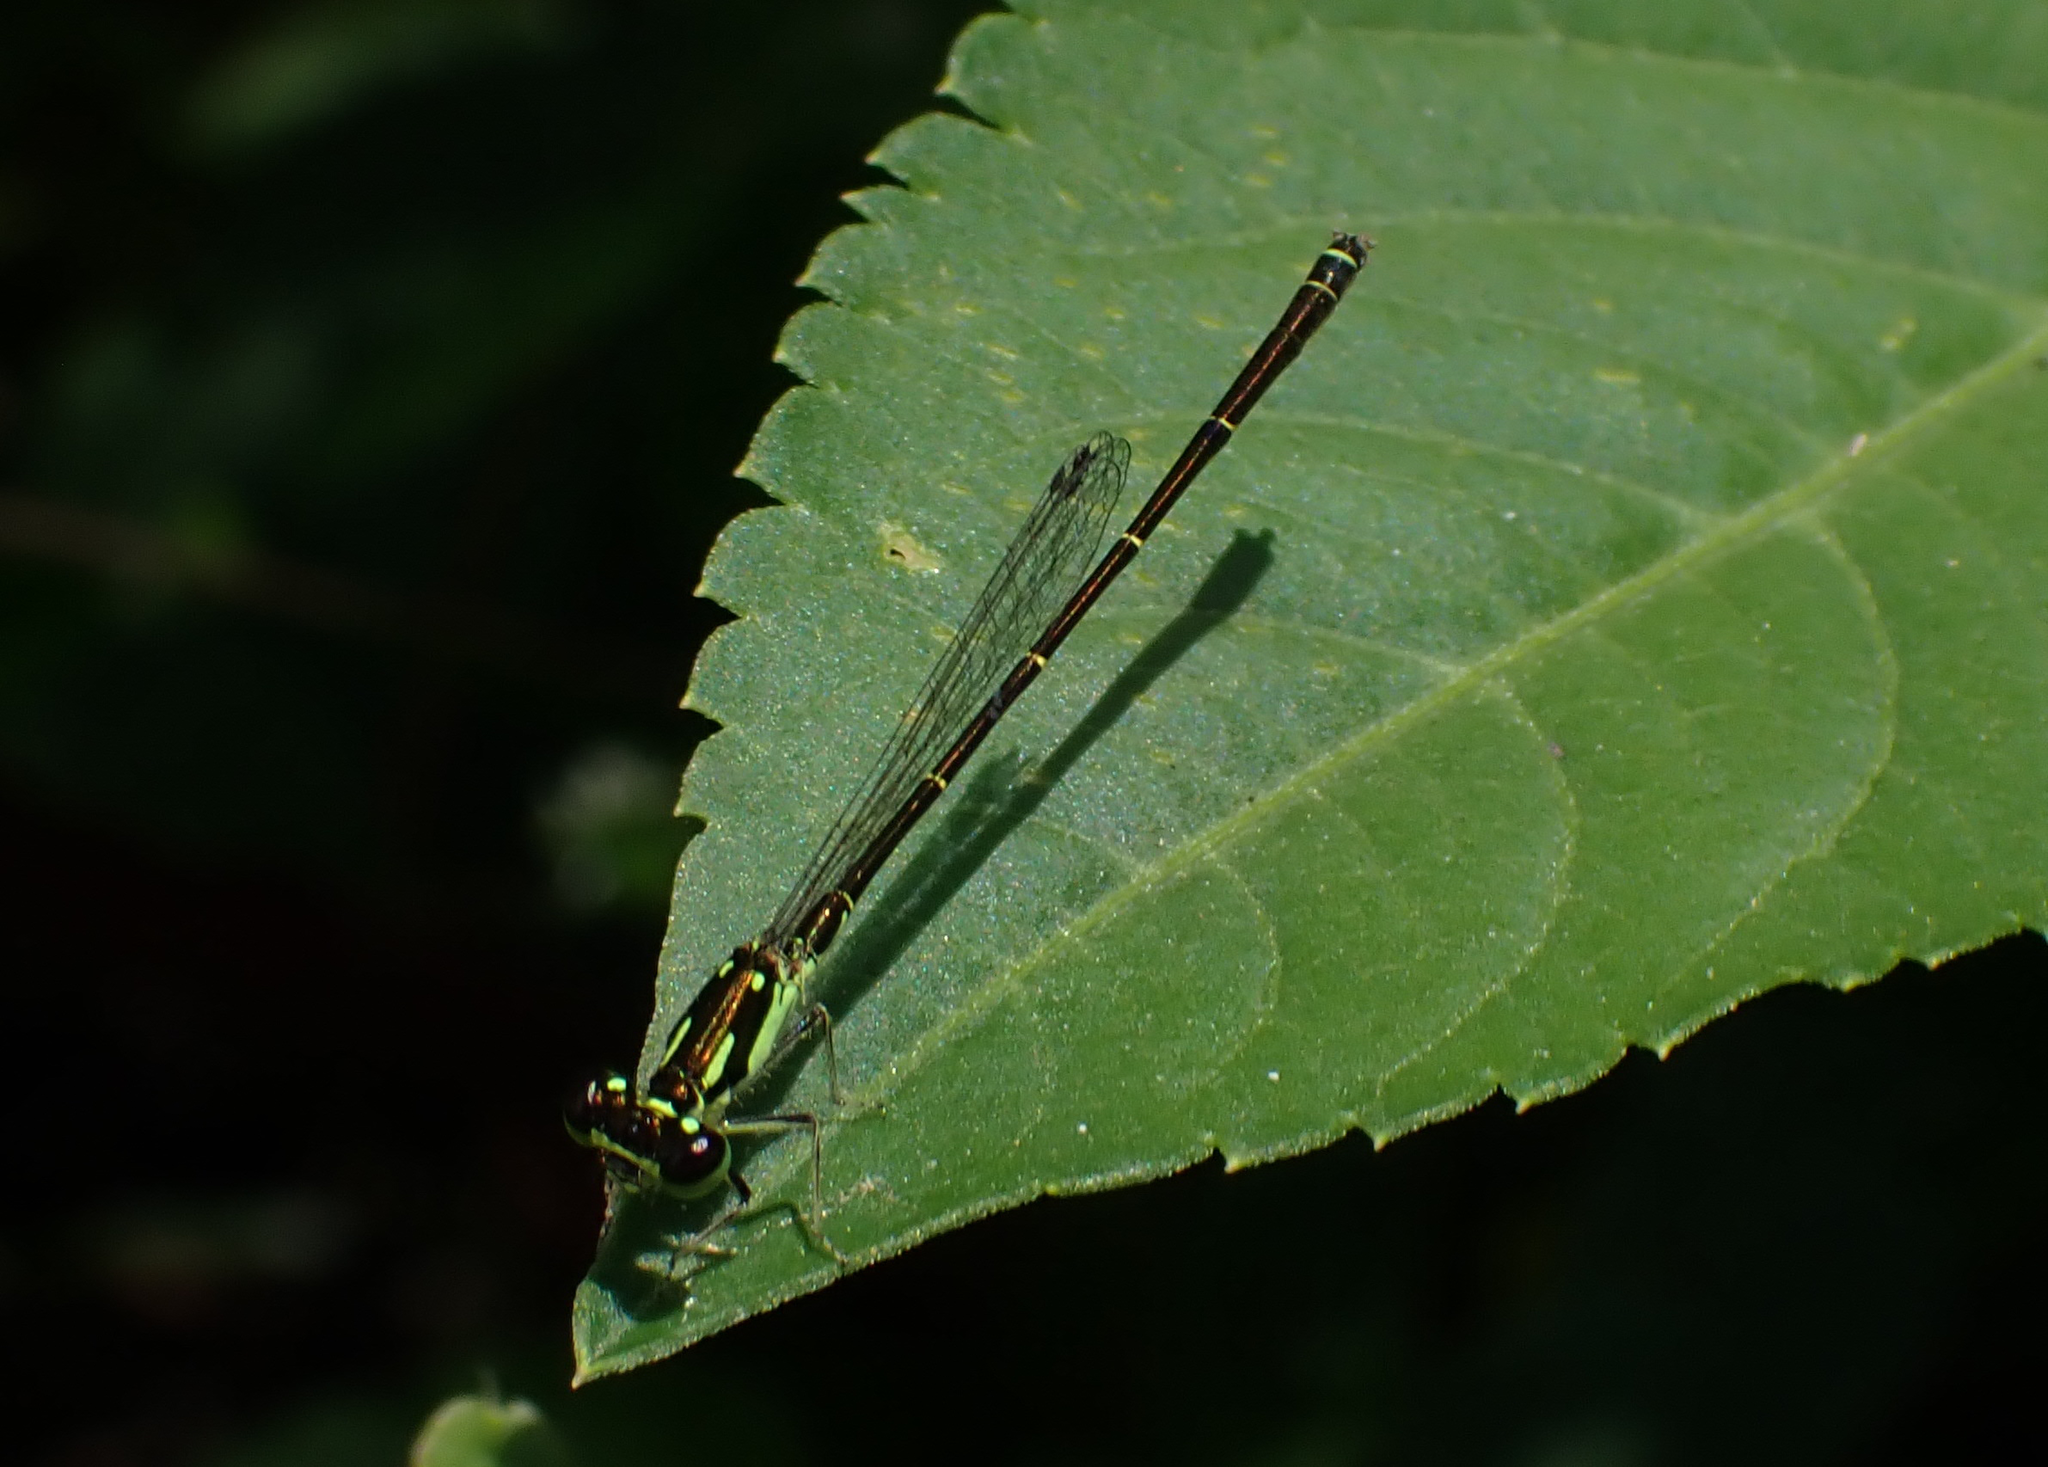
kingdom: Animalia
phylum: Arthropoda
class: Insecta
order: Odonata
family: Coenagrionidae
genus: Ischnura
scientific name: Ischnura posita
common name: Fragile forktail
